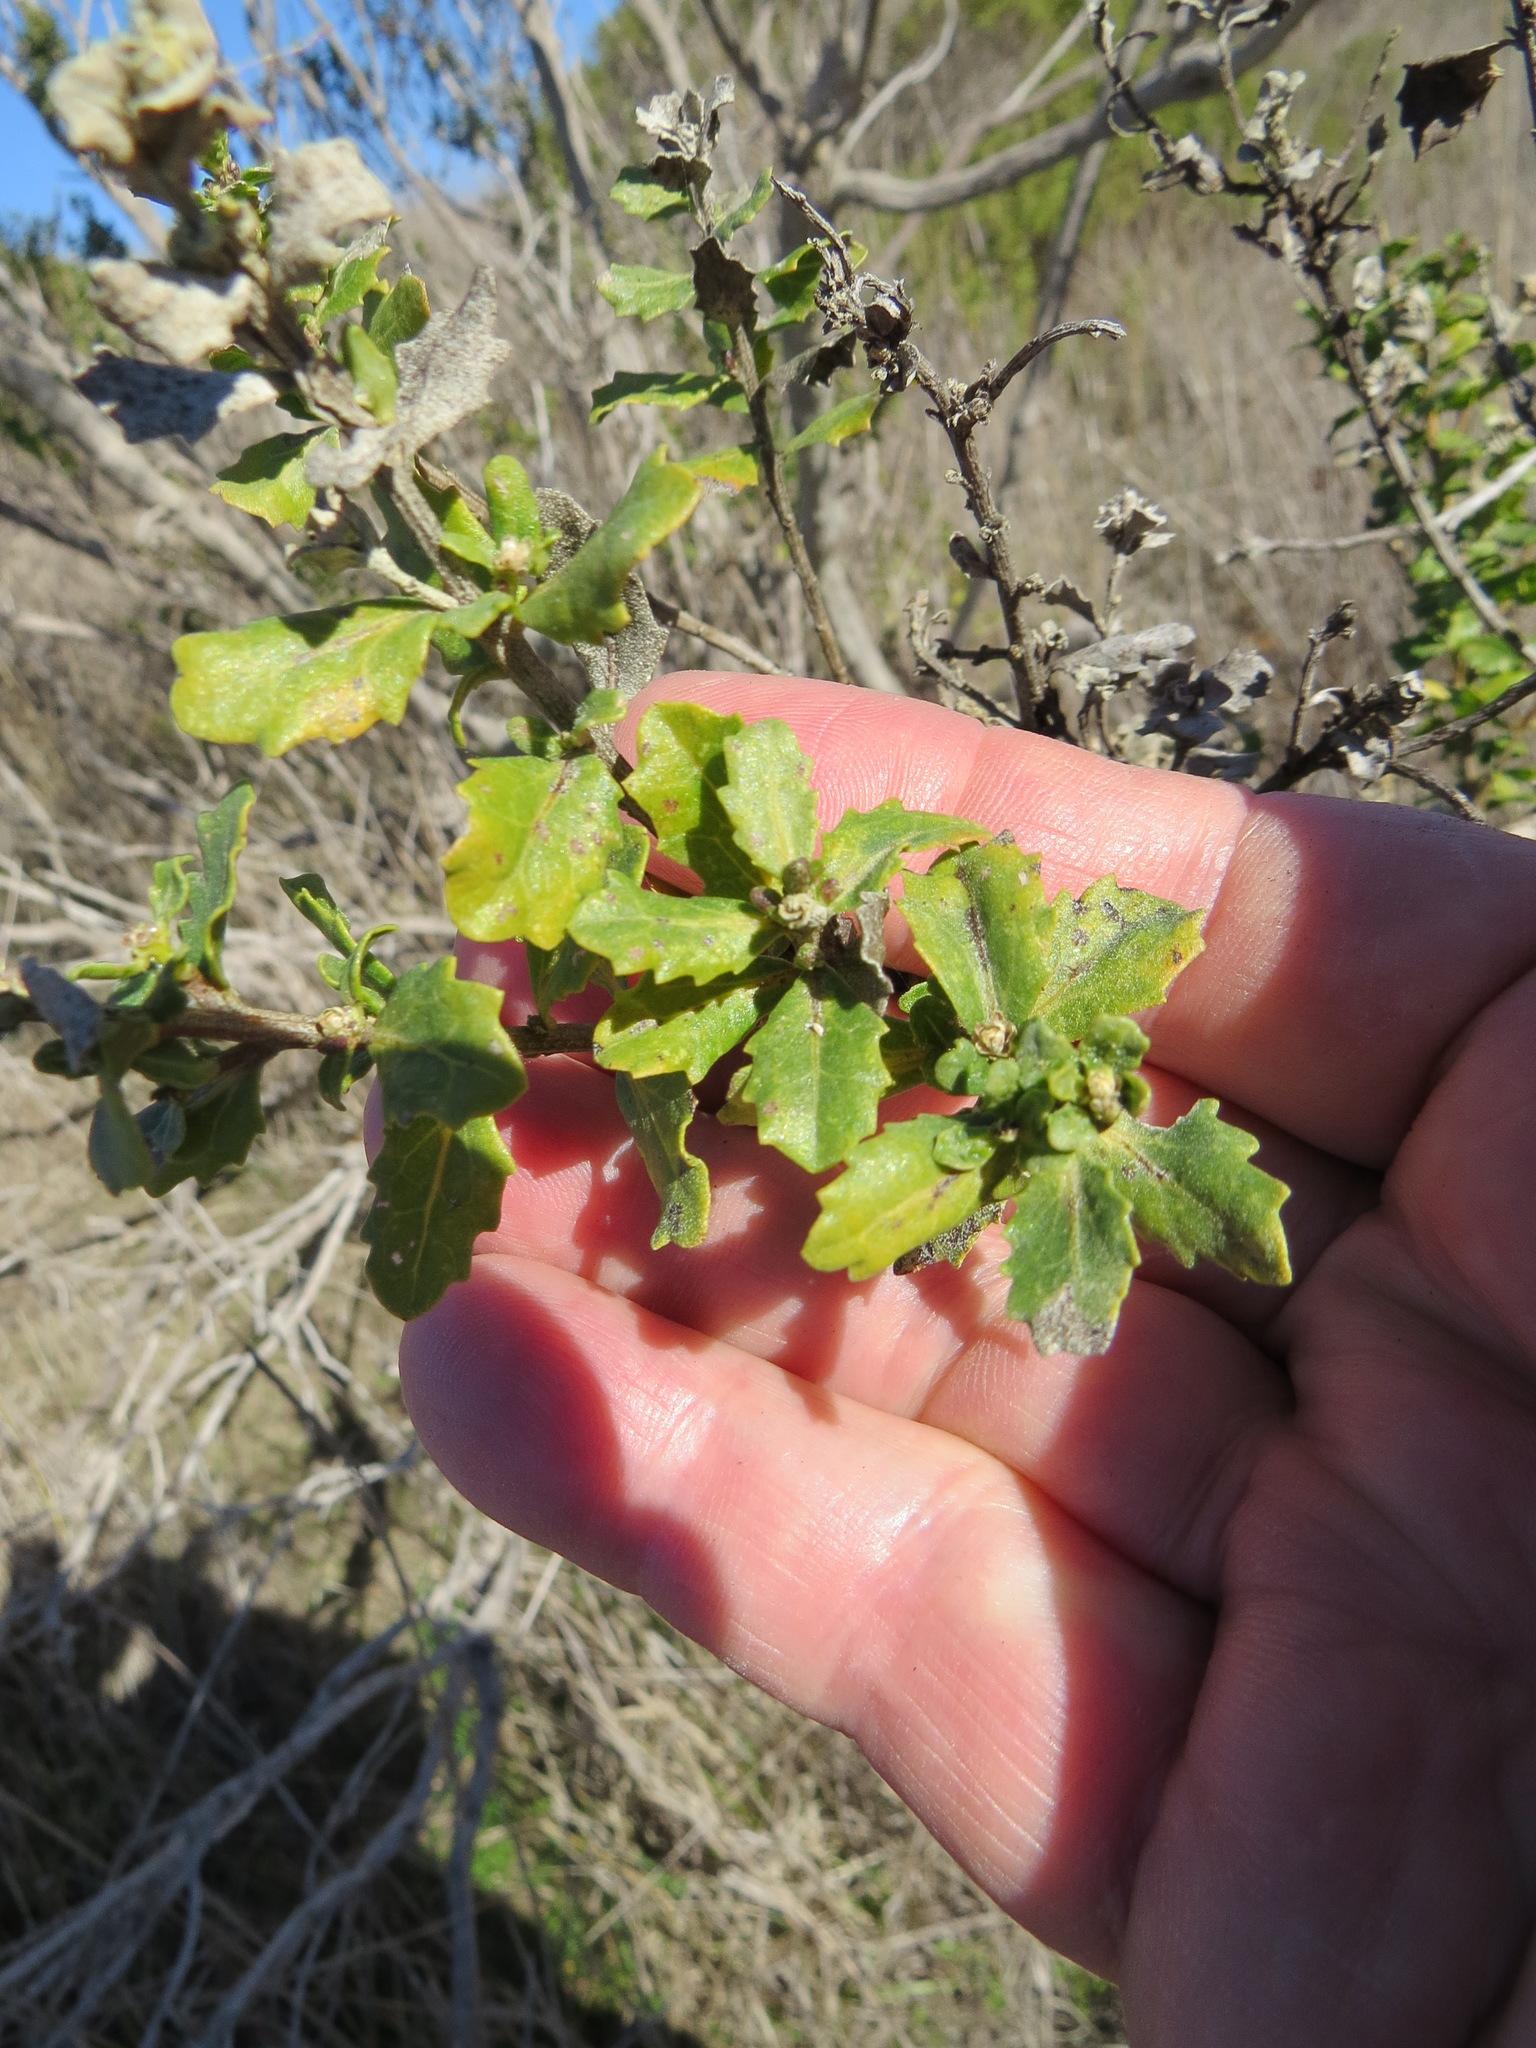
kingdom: Plantae
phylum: Tracheophyta
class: Magnoliopsida
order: Asterales
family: Asteraceae
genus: Baccharis
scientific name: Baccharis pilularis
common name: Coyotebrush
